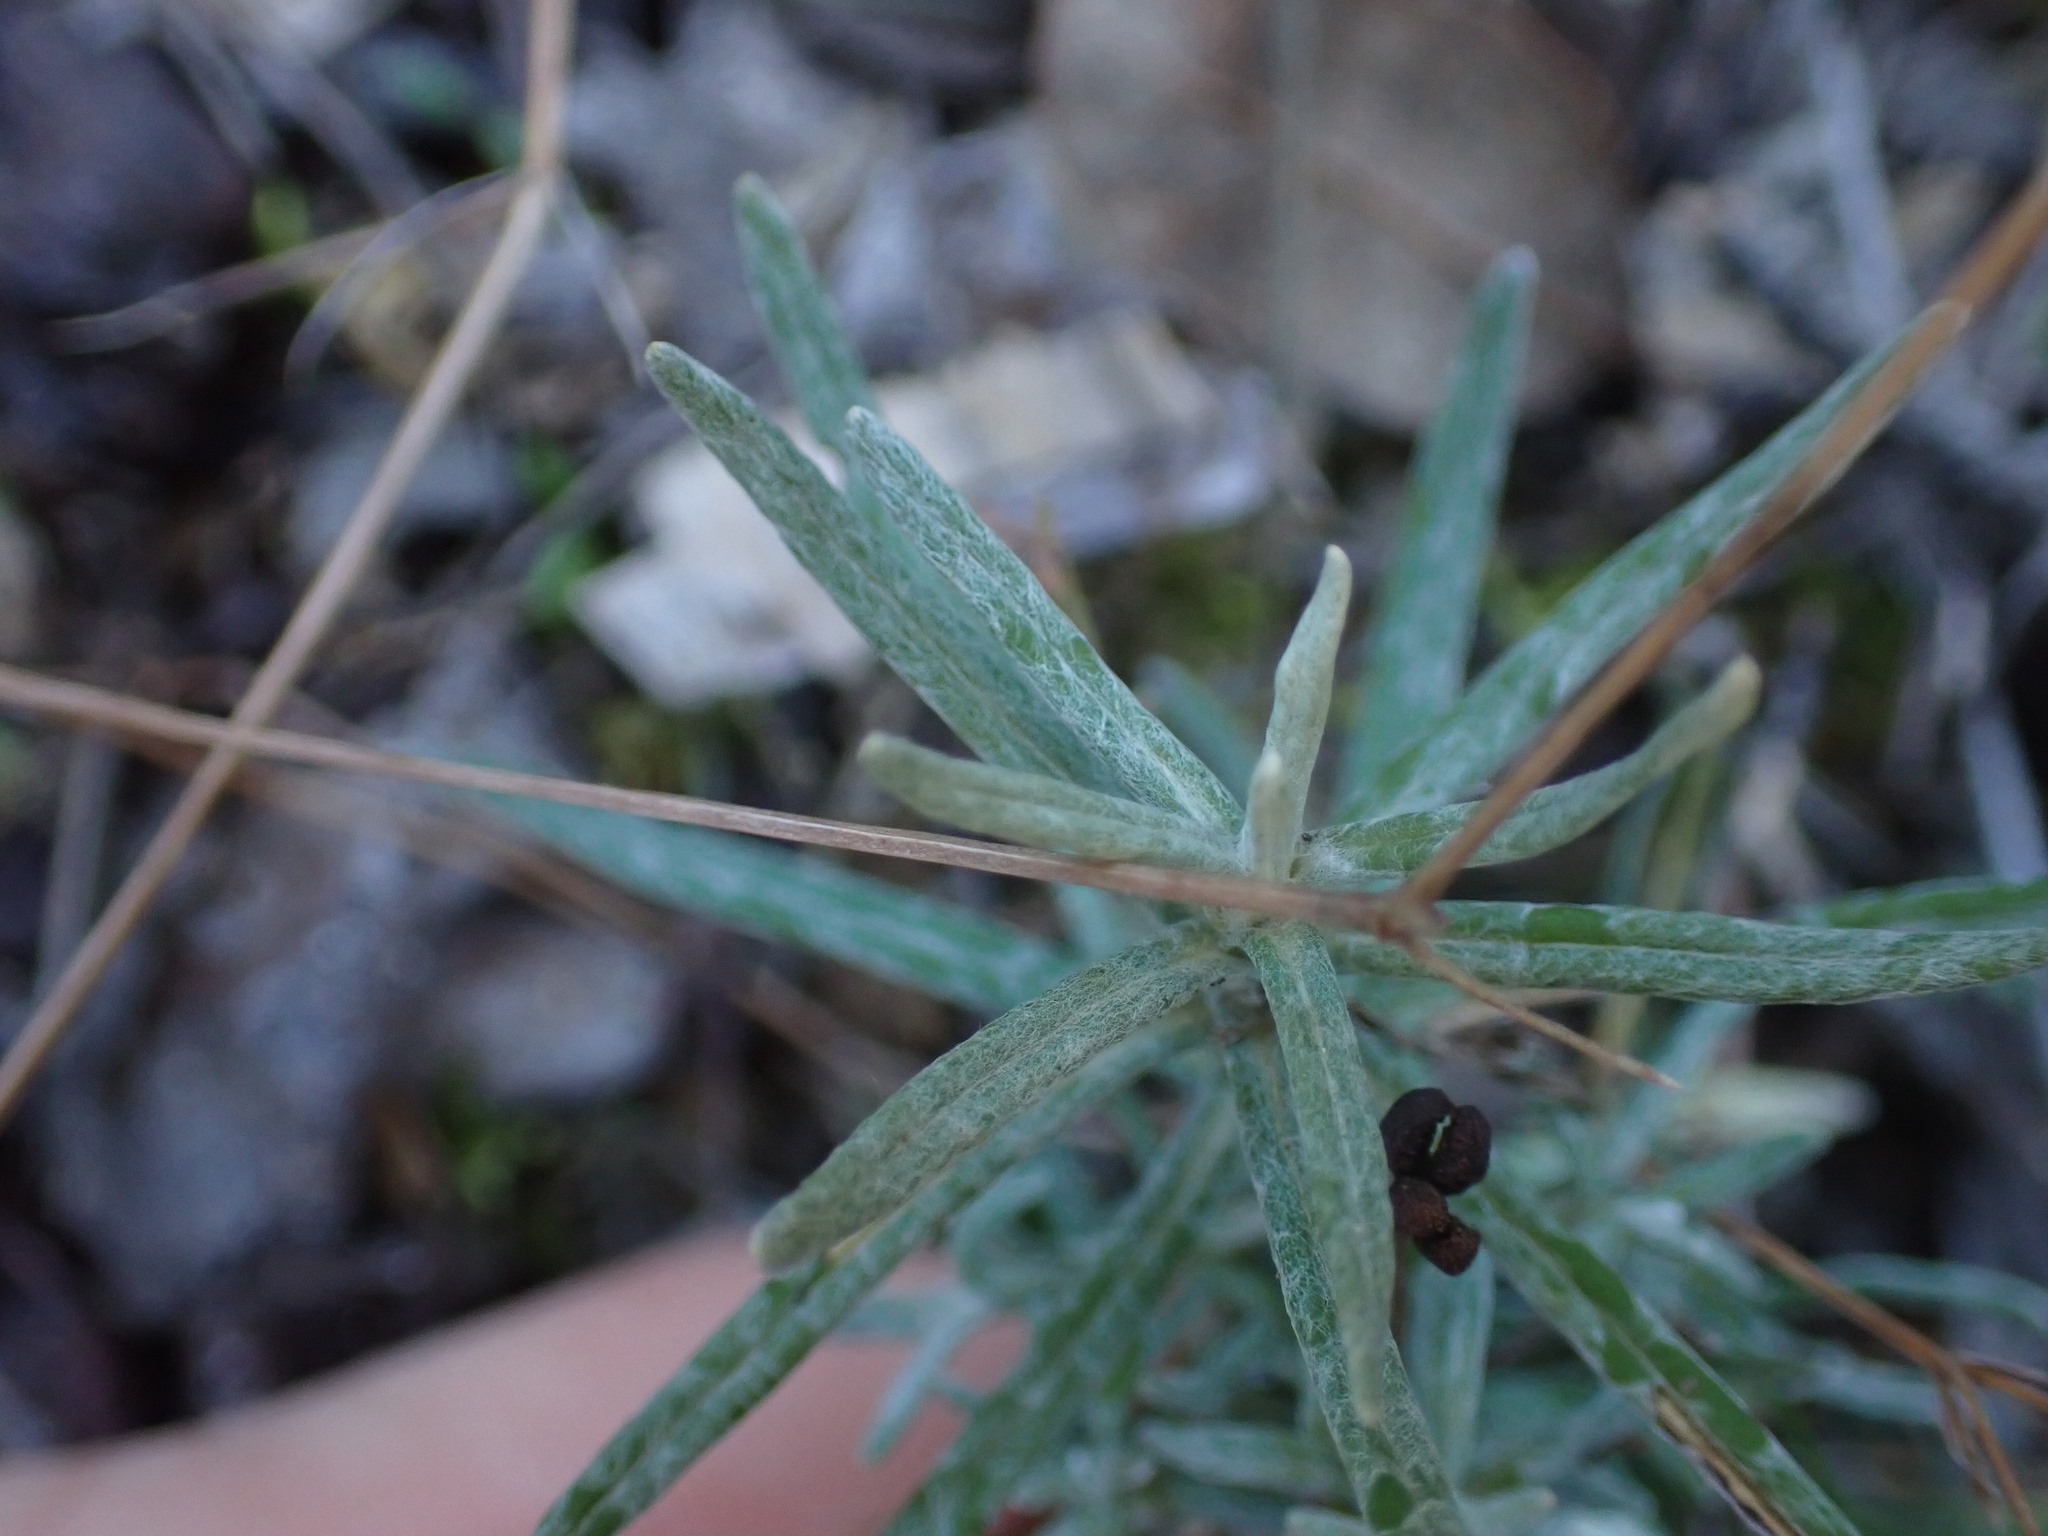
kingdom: Plantae
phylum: Tracheophyta
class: Magnoliopsida
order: Asterales
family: Asteraceae
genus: Staehelina
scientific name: Staehelina dubia
